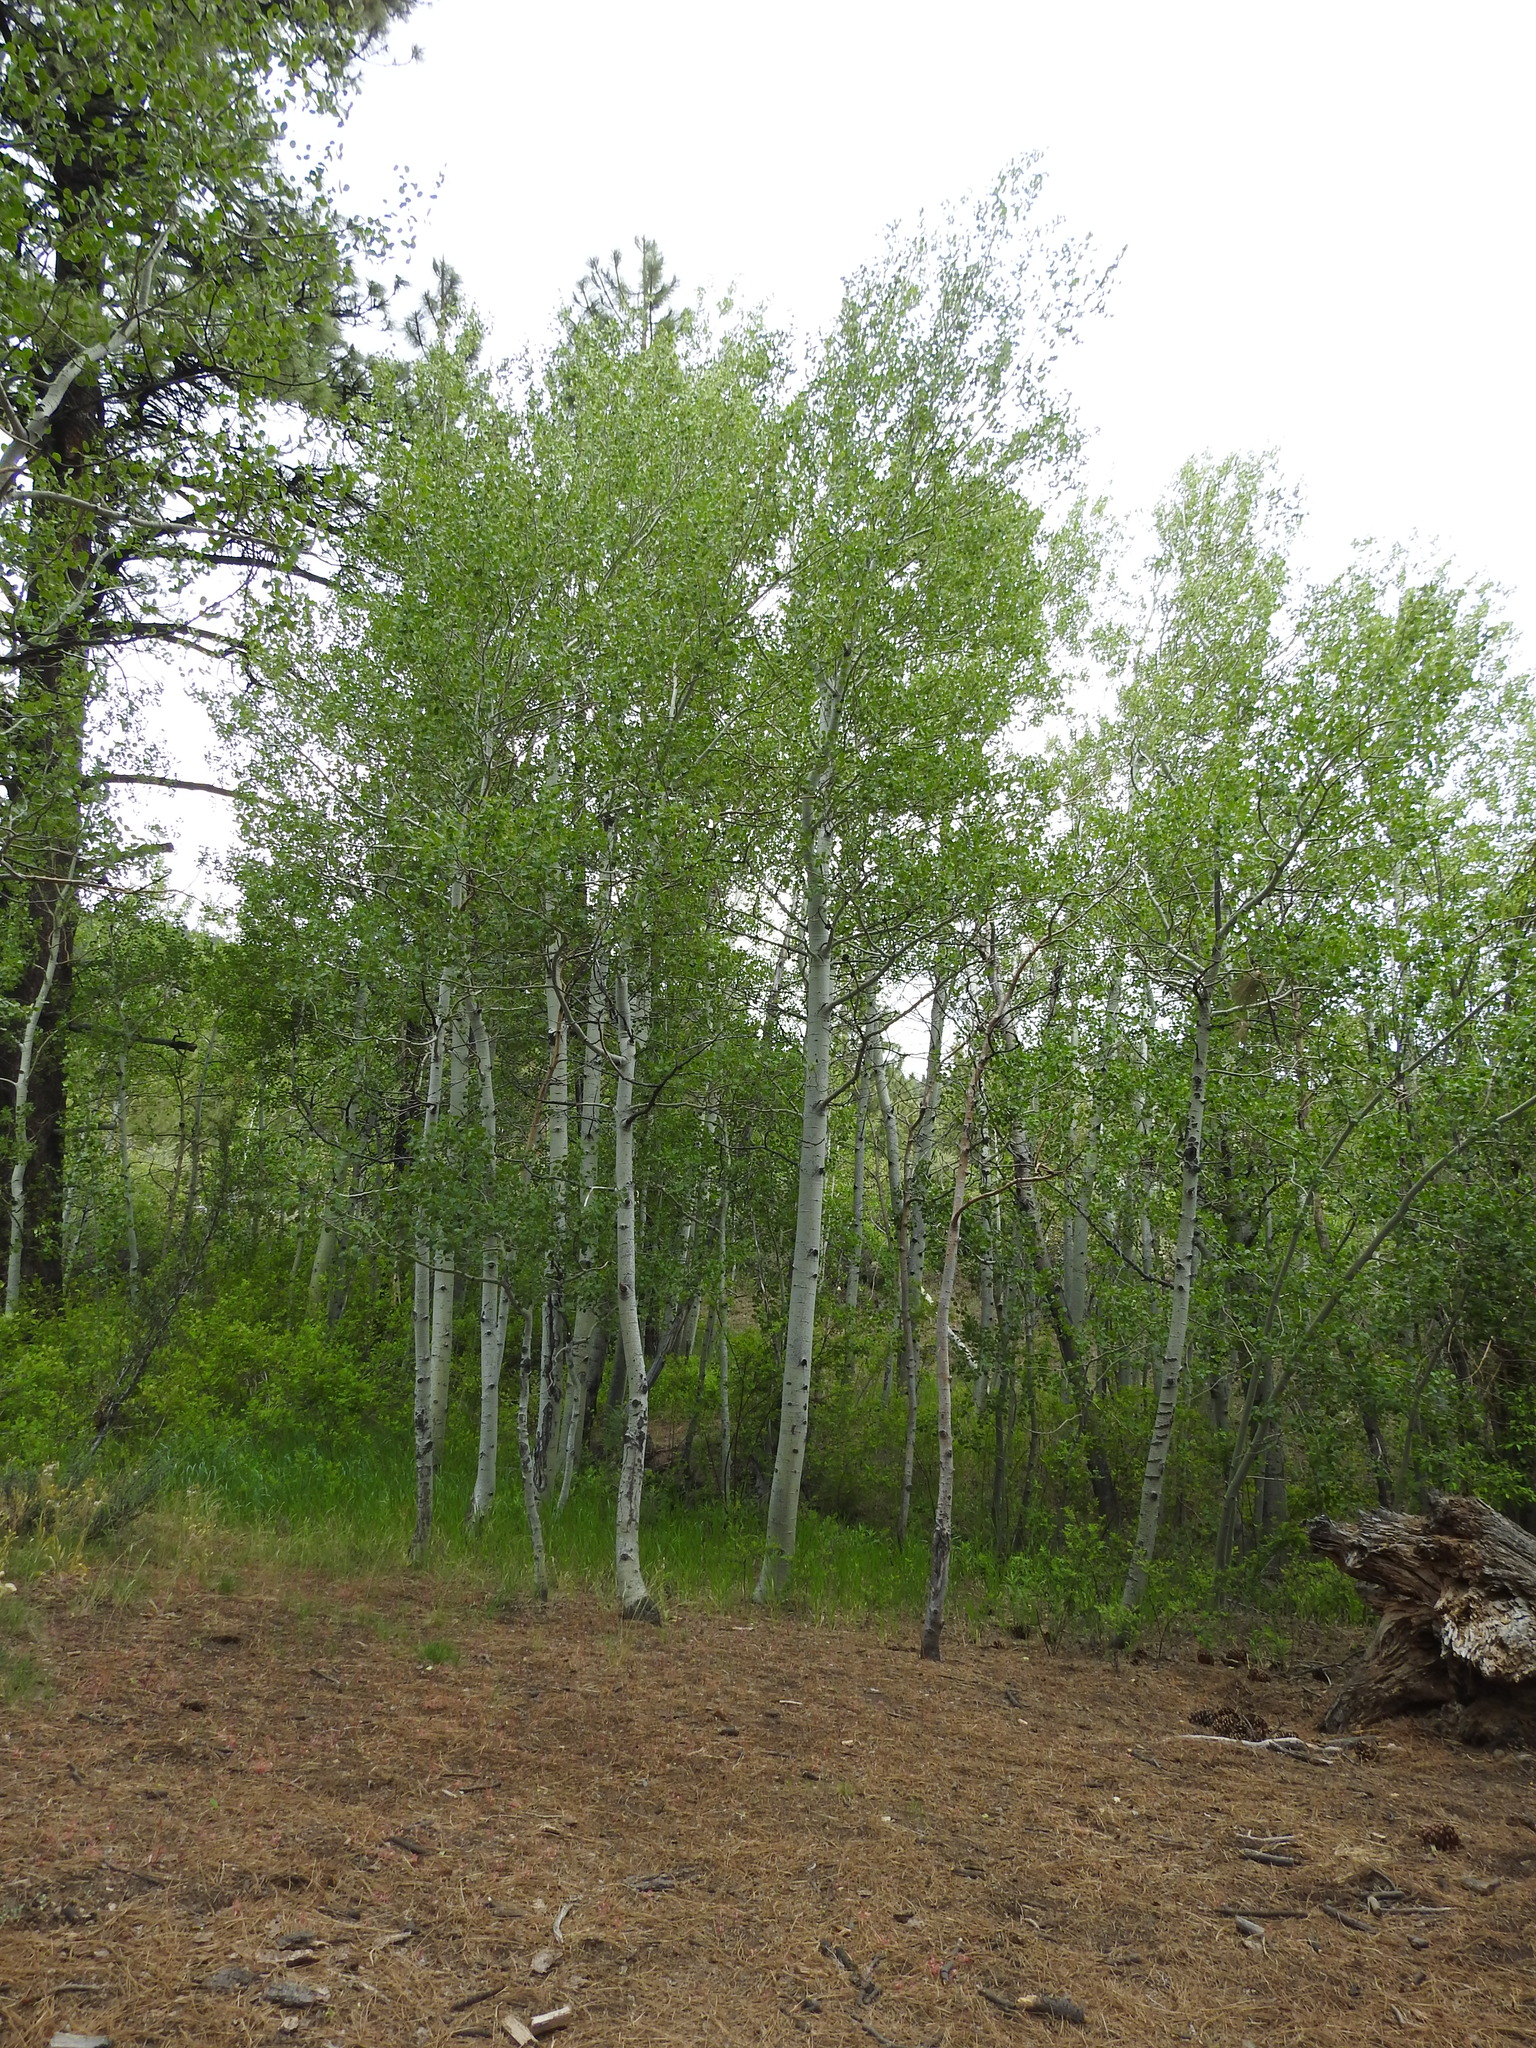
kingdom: Plantae
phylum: Tracheophyta
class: Magnoliopsida
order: Malpighiales
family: Salicaceae
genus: Populus
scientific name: Populus tremuloides
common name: Quaking aspen
